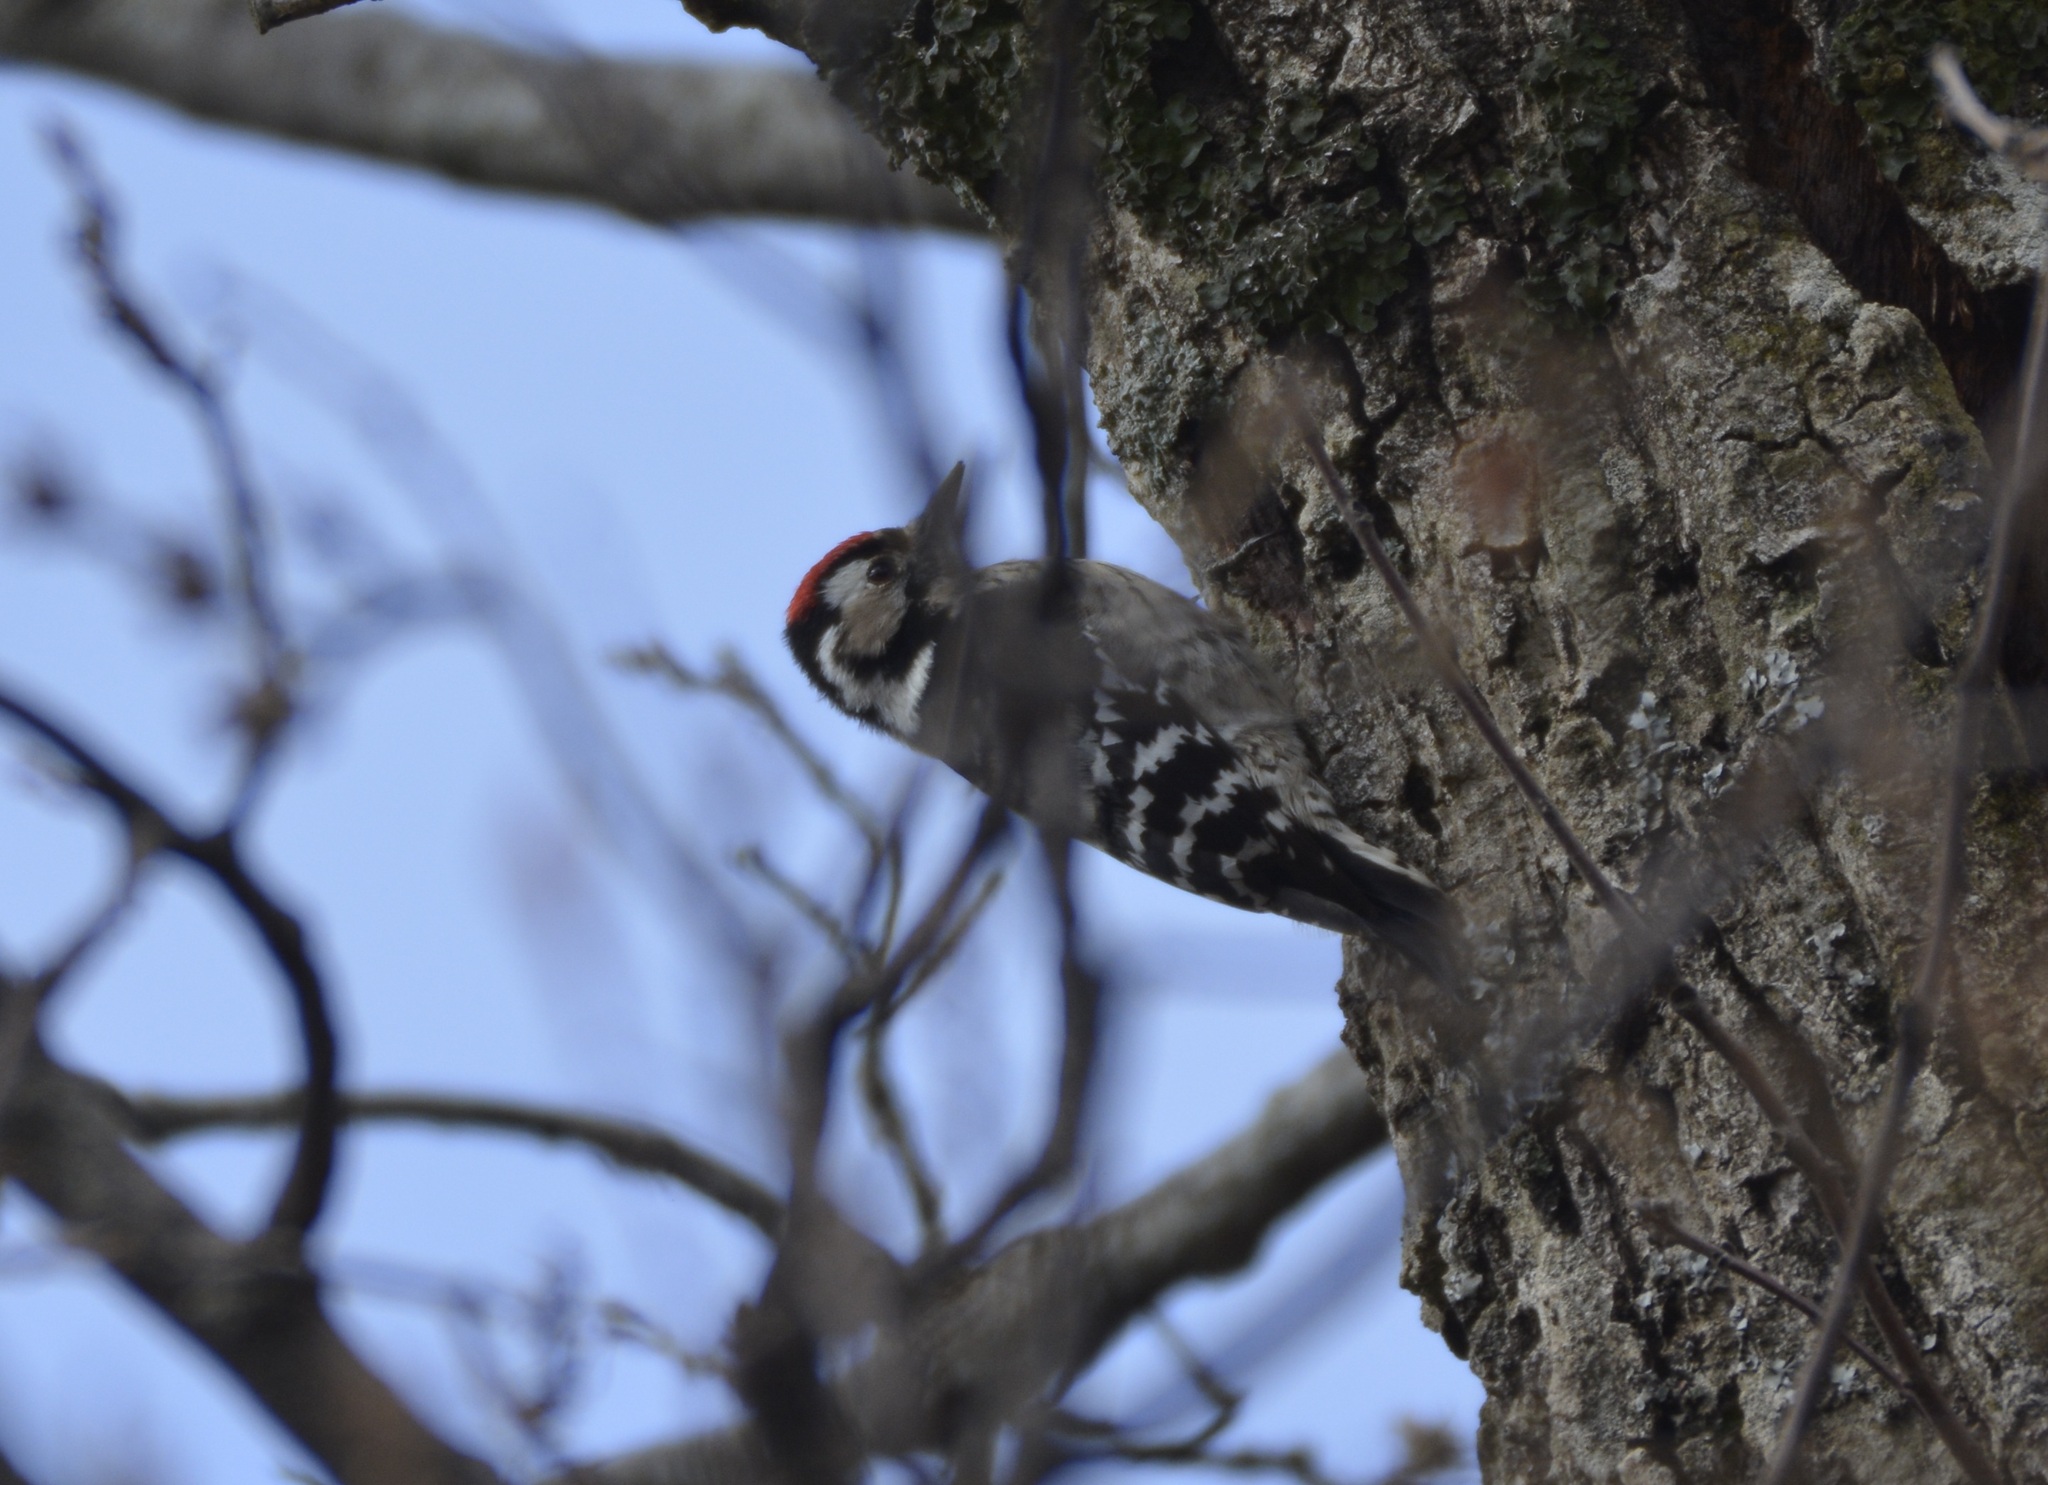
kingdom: Animalia
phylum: Chordata
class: Aves
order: Piciformes
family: Picidae
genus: Dryobates
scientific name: Dryobates minor
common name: Lesser spotted woodpecker
